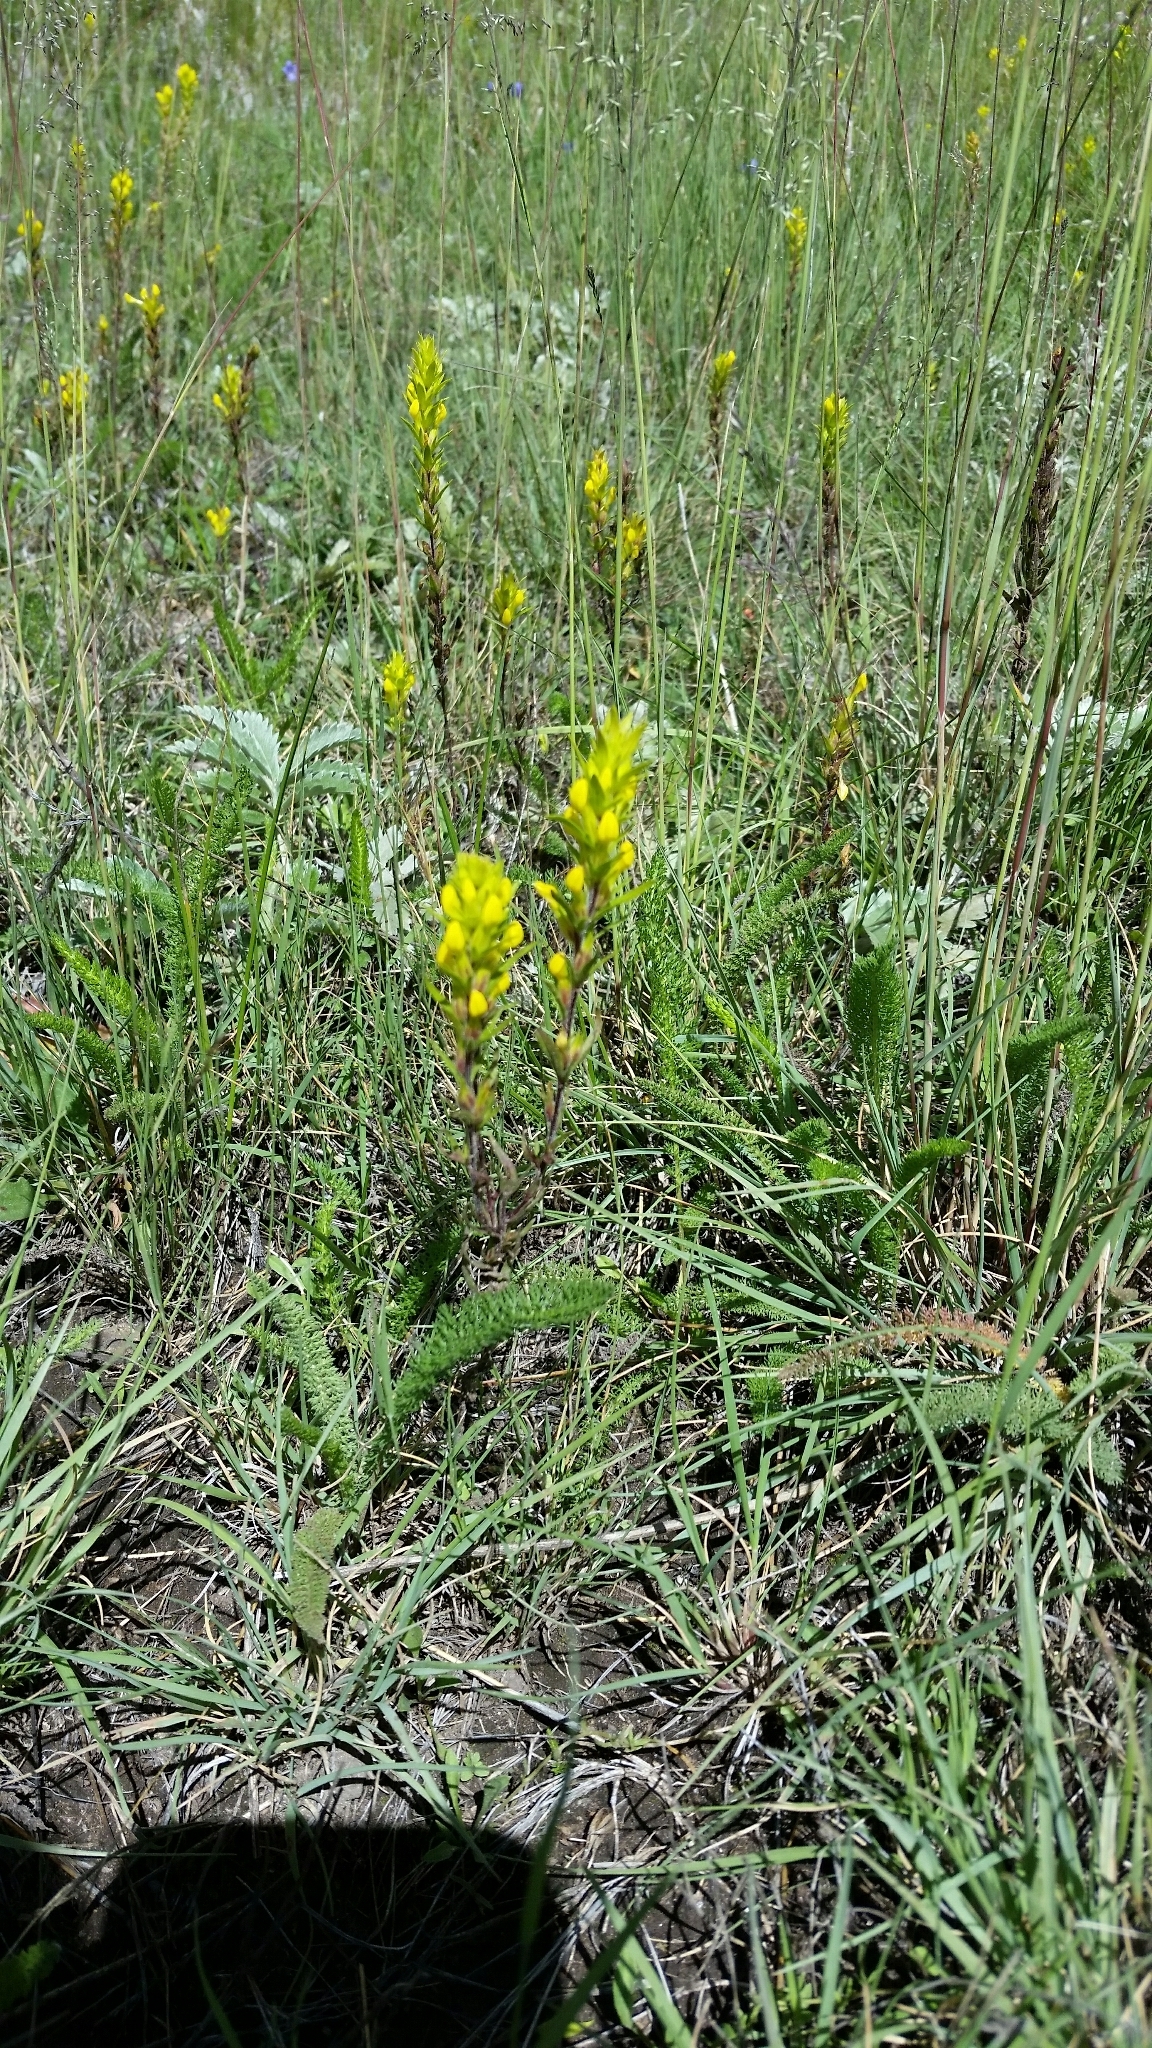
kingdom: Plantae
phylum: Tracheophyta
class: Magnoliopsida
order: Lamiales
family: Orobanchaceae
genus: Orthocarpus
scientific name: Orthocarpus luteus
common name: Golden-tongue owl's-clover
